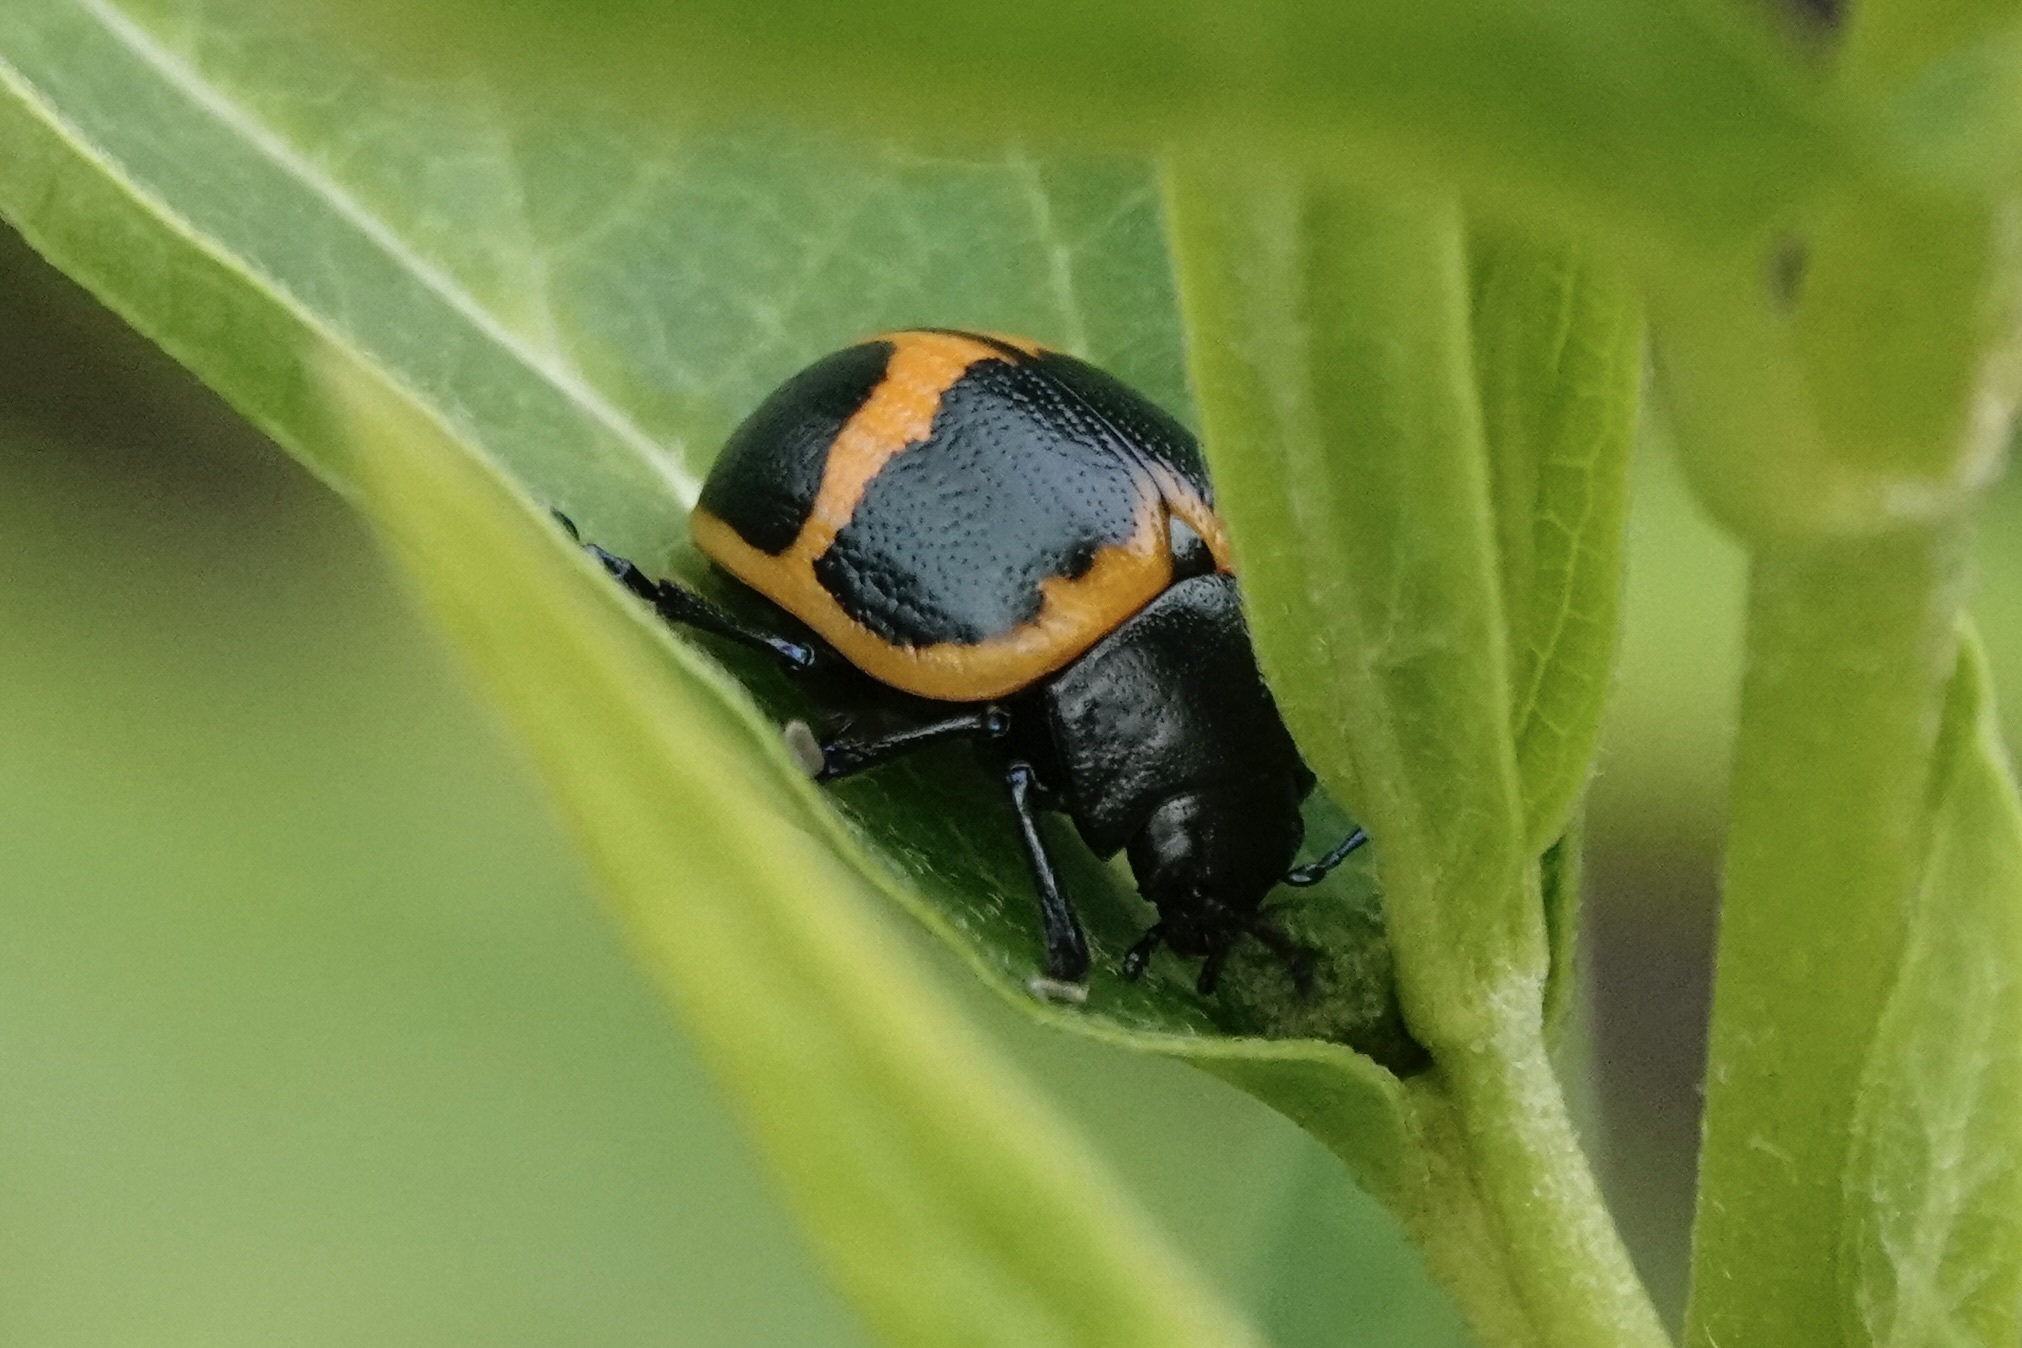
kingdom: Animalia
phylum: Arthropoda
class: Insecta
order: Coleoptera
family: Chrysomelidae
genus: Labidomera
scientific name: Labidomera clivicollis
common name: Swamp milkweed leaf beetle
